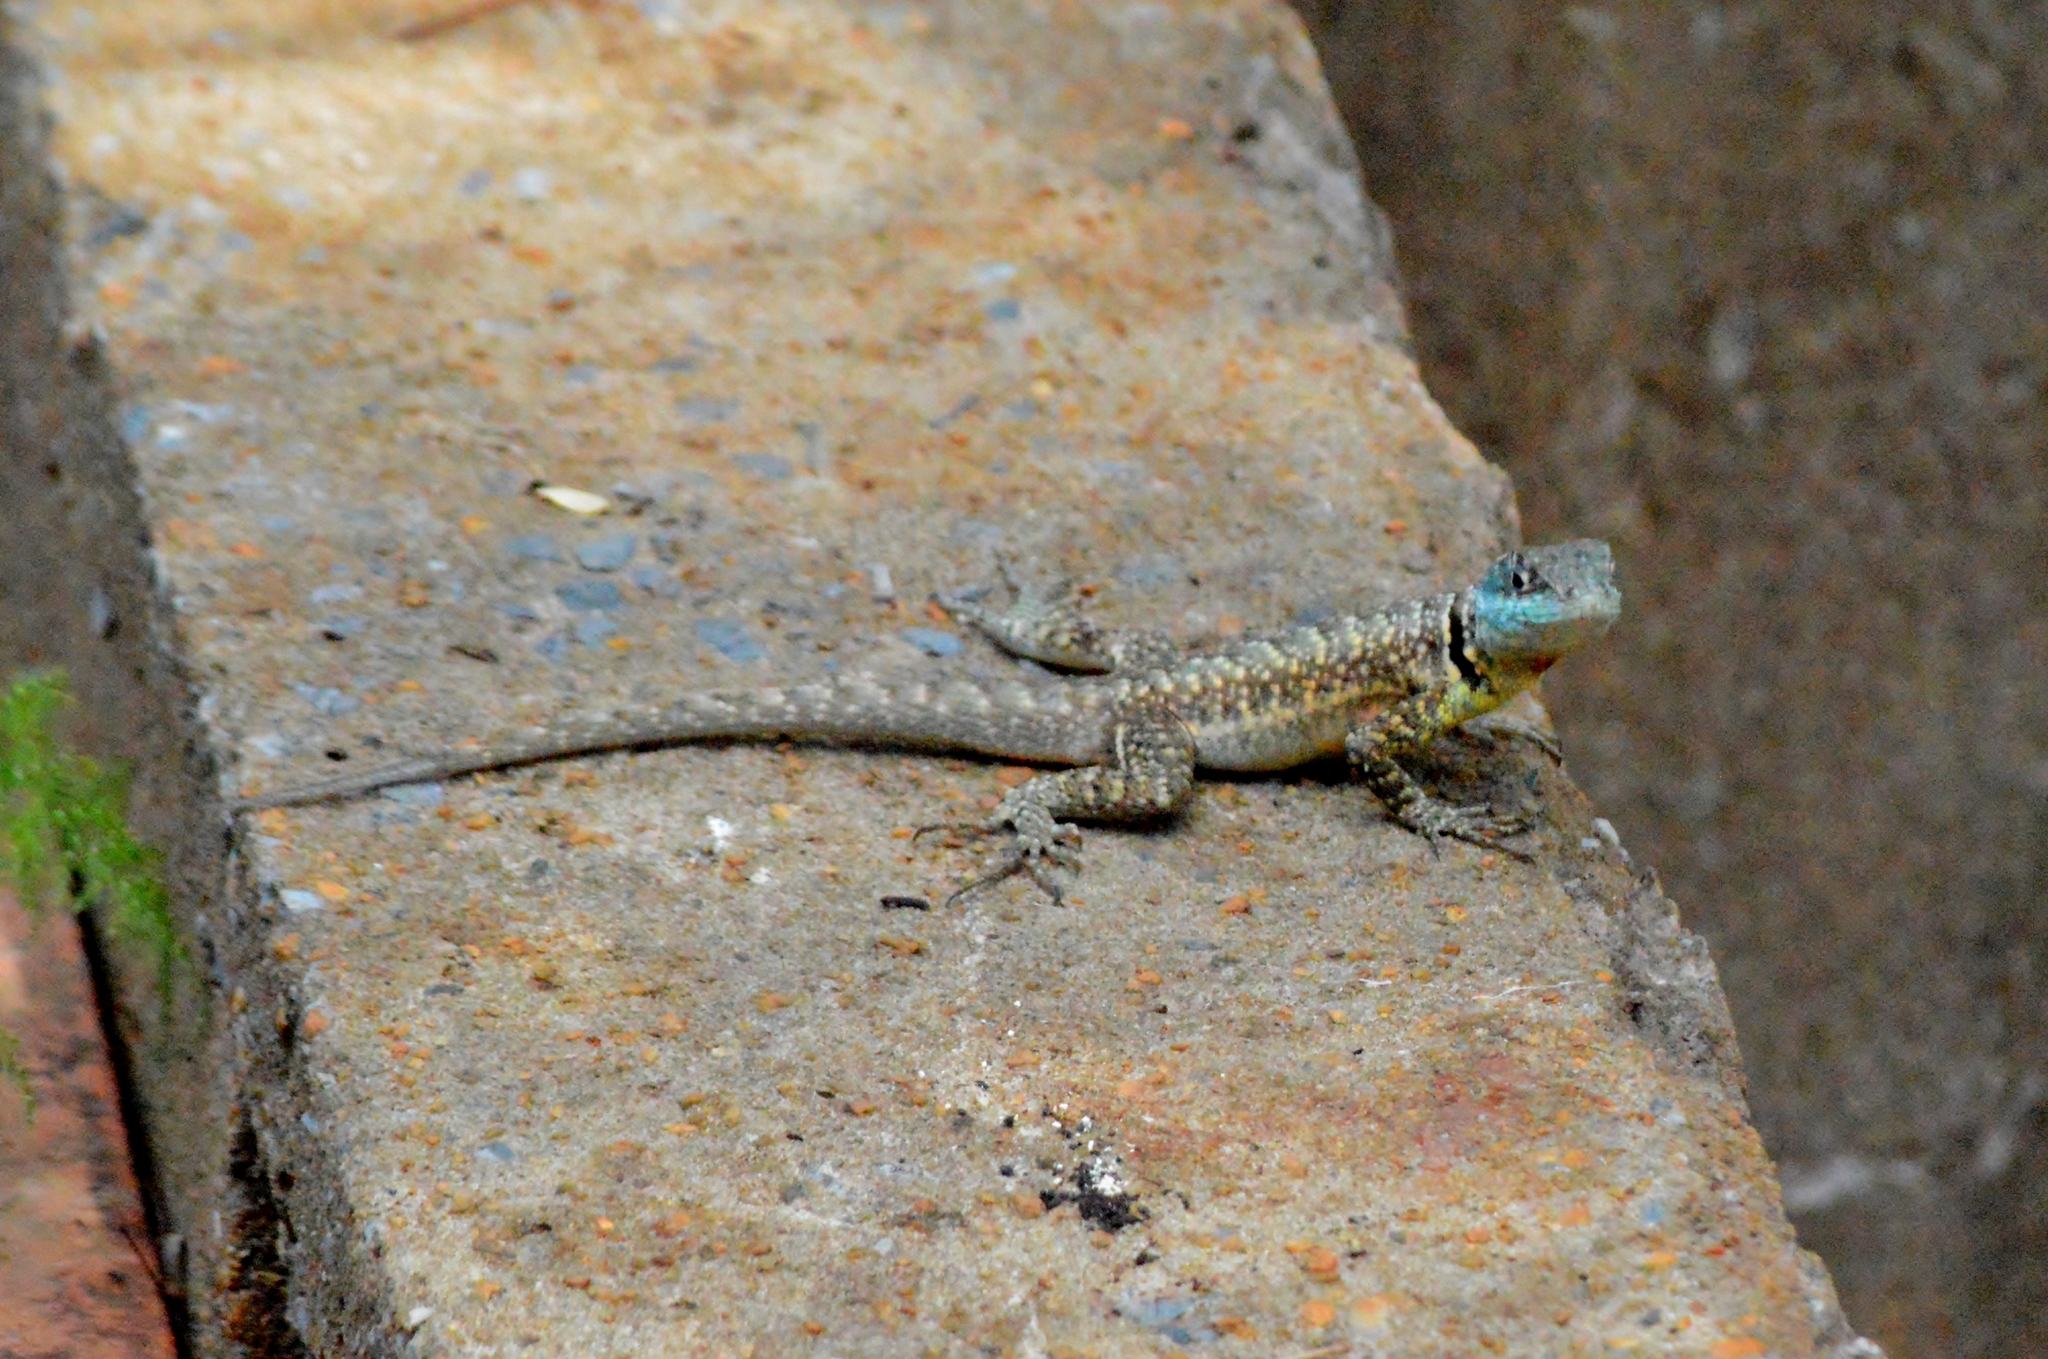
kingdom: Animalia
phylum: Chordata
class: Squamata
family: Tropiduridae
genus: Tropidurus
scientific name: Tropidurus torquatus
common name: Amazon lava lizard
